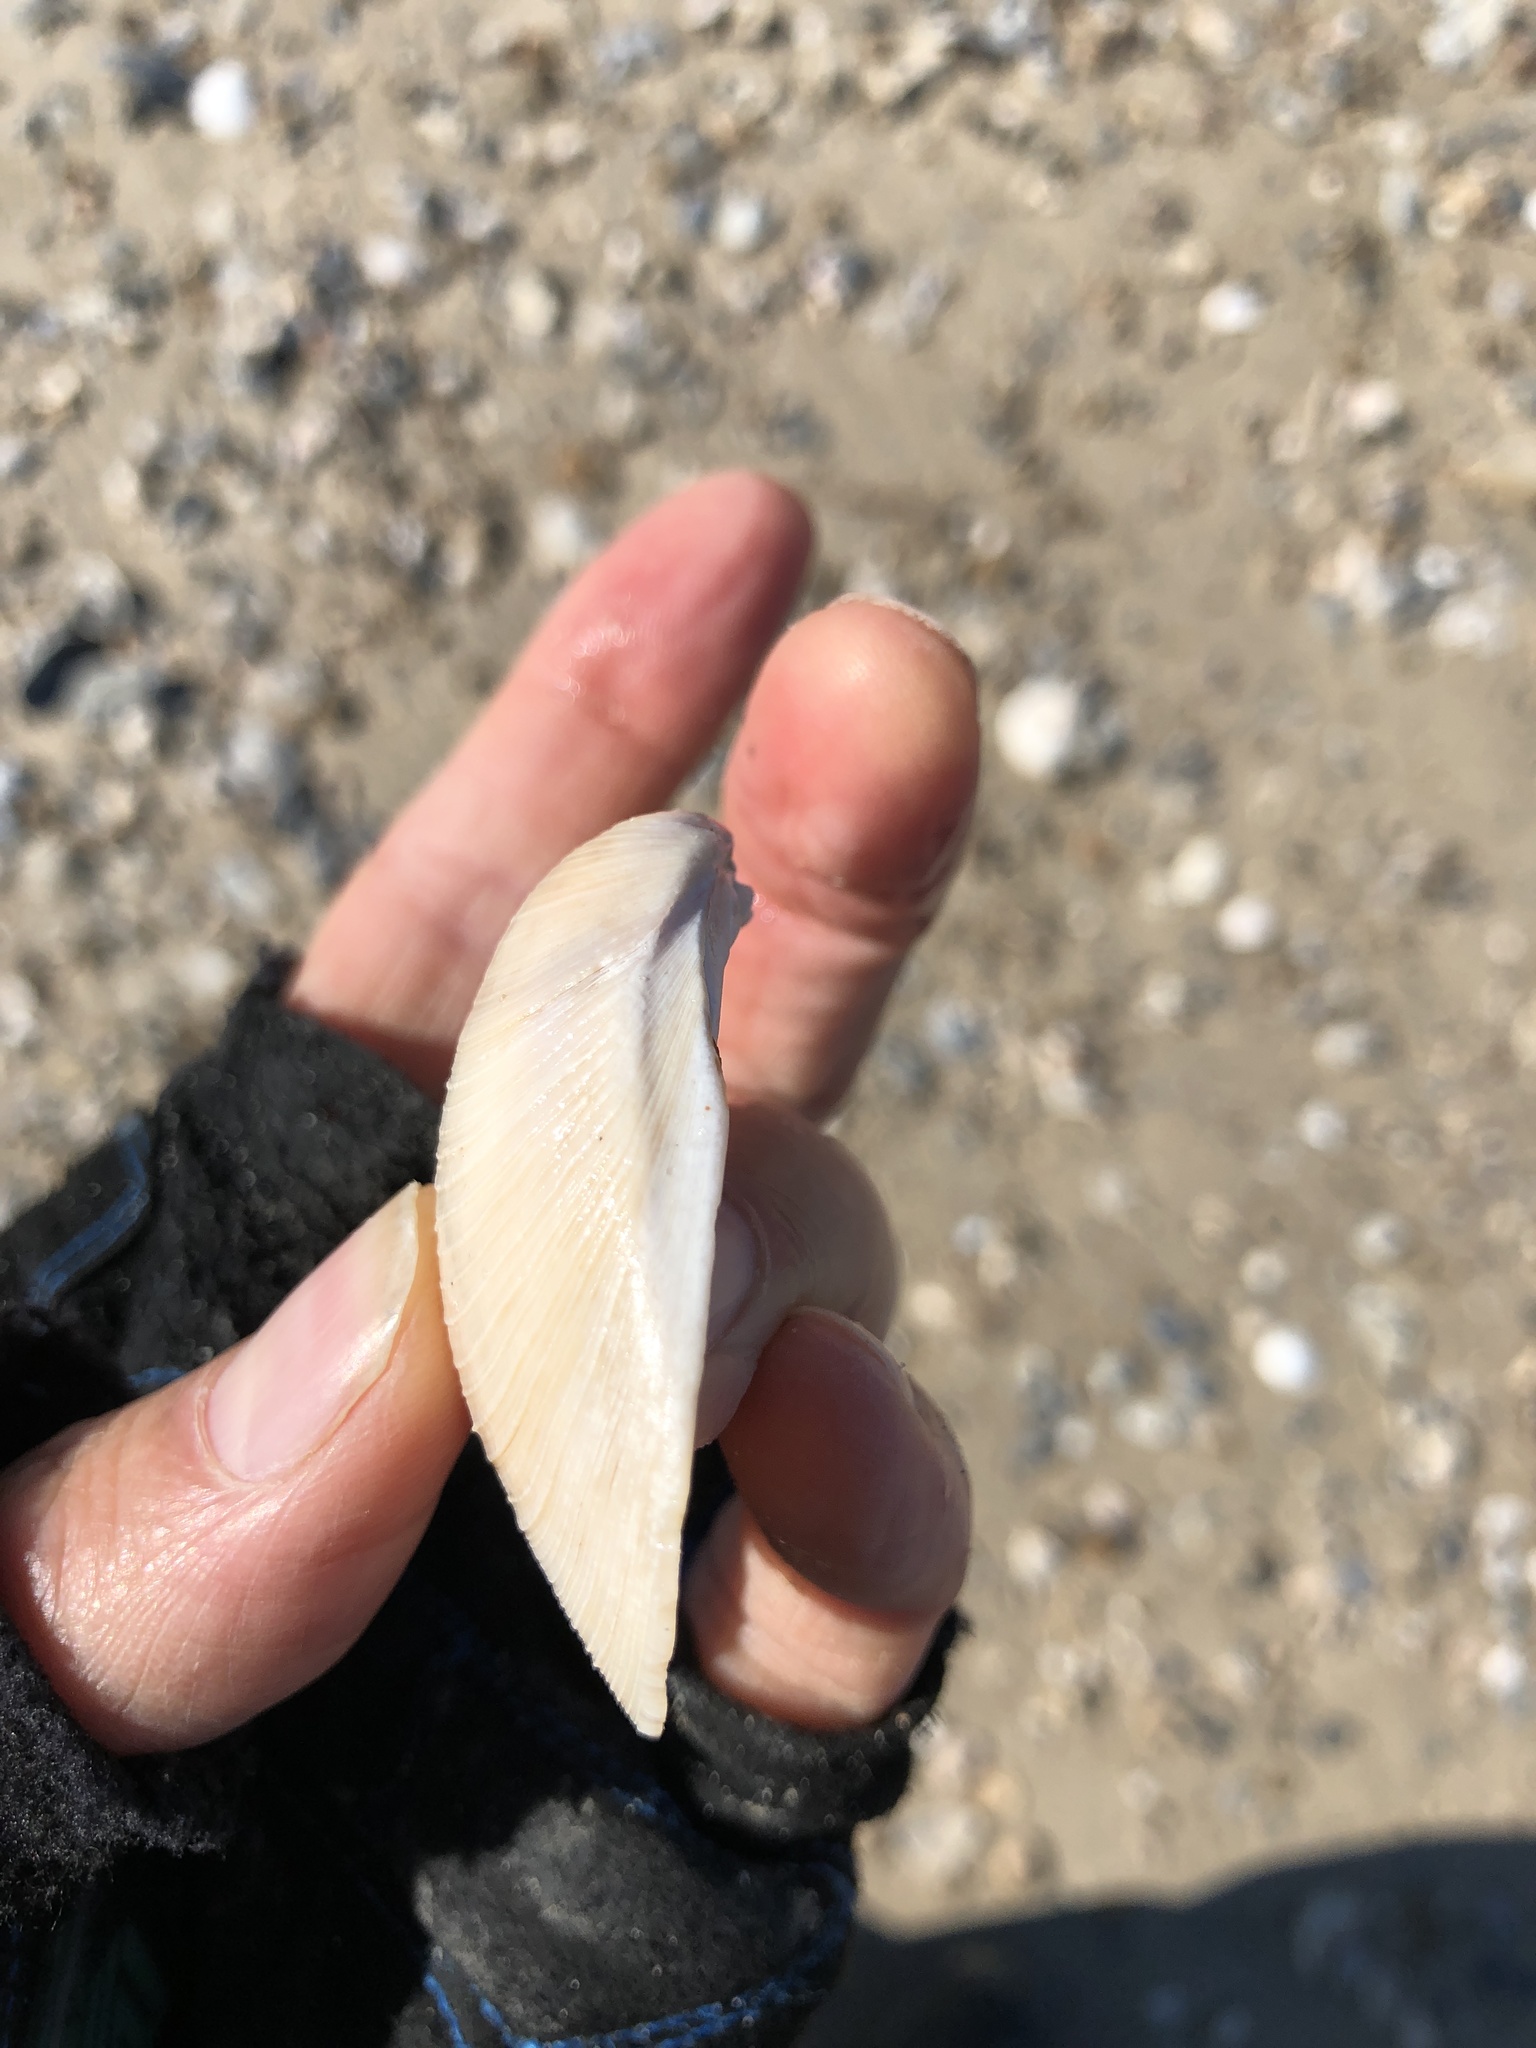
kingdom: Animalia
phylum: Mollusca
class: Bivalvia
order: Venerida
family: Veneridae
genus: Mercenaria
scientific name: Mercenaria campechiensis
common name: Südliche quahog-muschel
